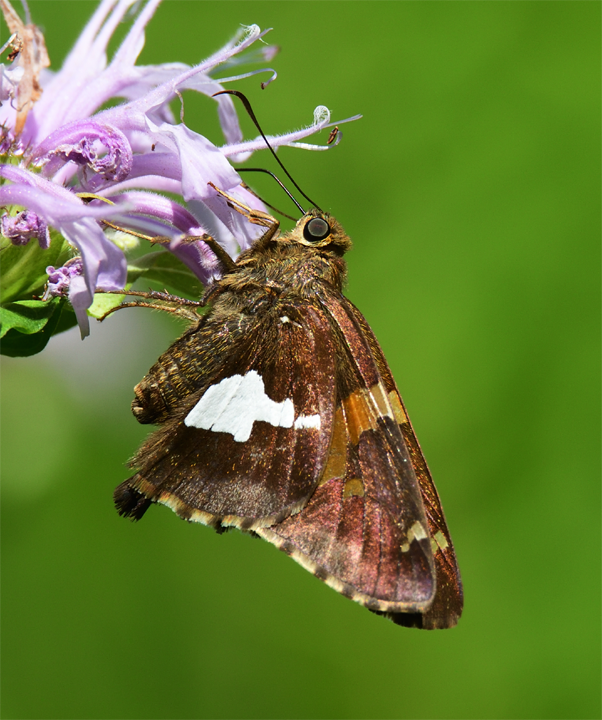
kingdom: Animalia
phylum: Arthropoda
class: Insecta
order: Lepidoptera
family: Hesperiidae
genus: Epargyreus
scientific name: Epargyreus clarus
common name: Silver-spotted skipper
